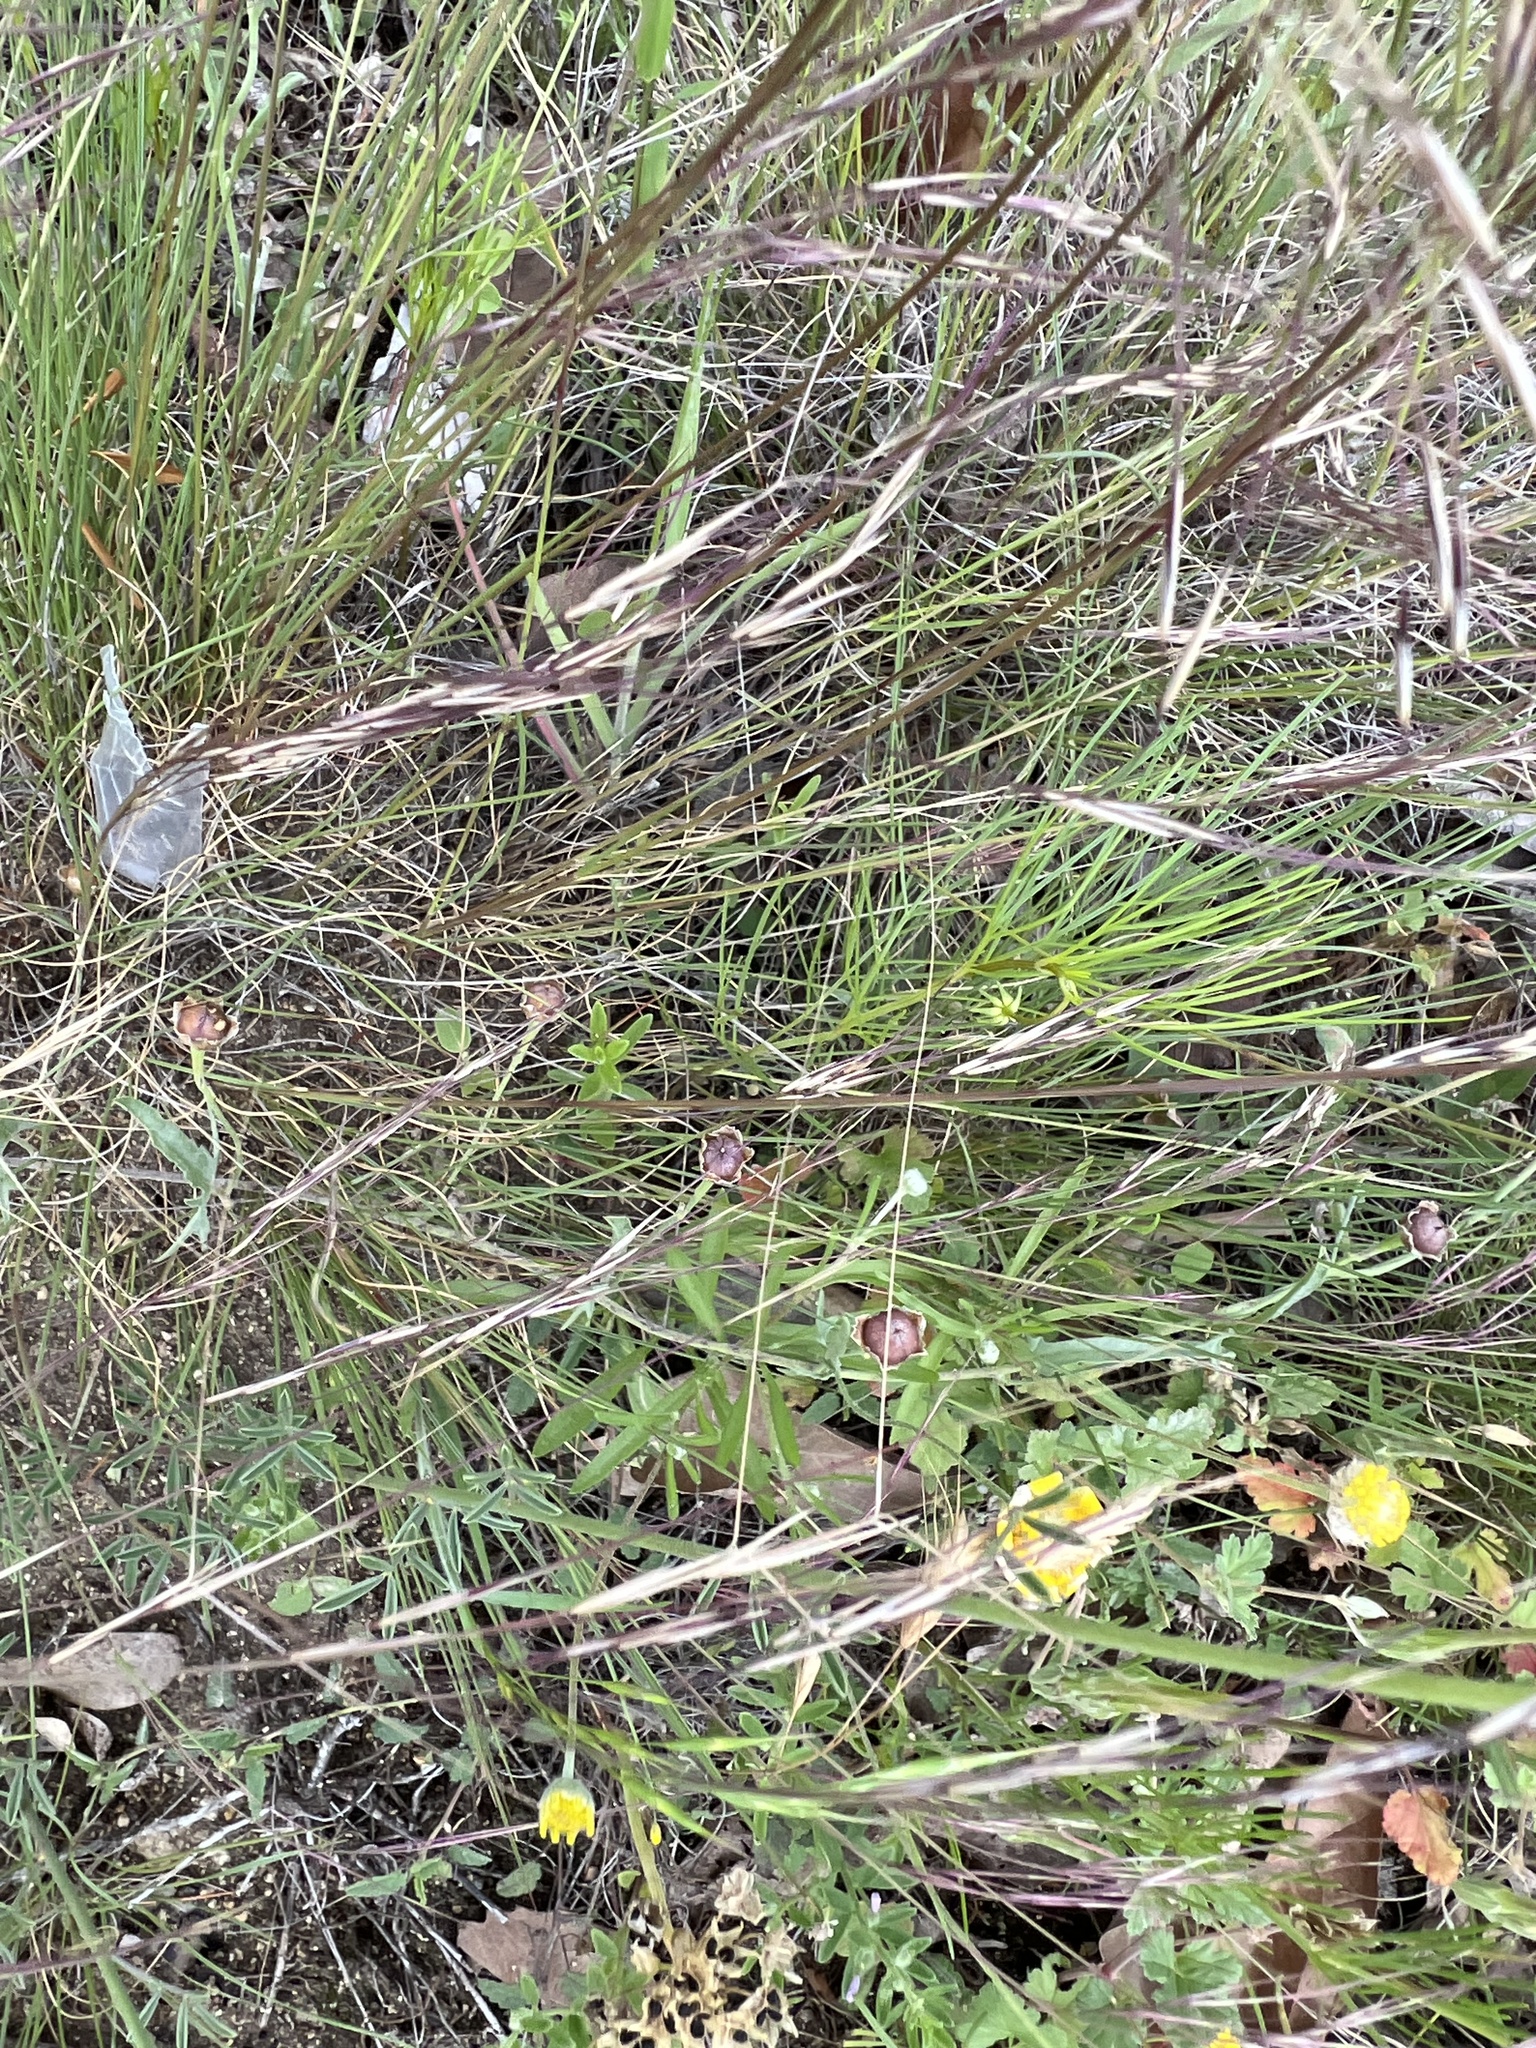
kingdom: Plantae
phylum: Tracheophyta
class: Liliopsida
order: Poales
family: Poaceae
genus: Aristida
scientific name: Aristida purpurea
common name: Purple threeawn
